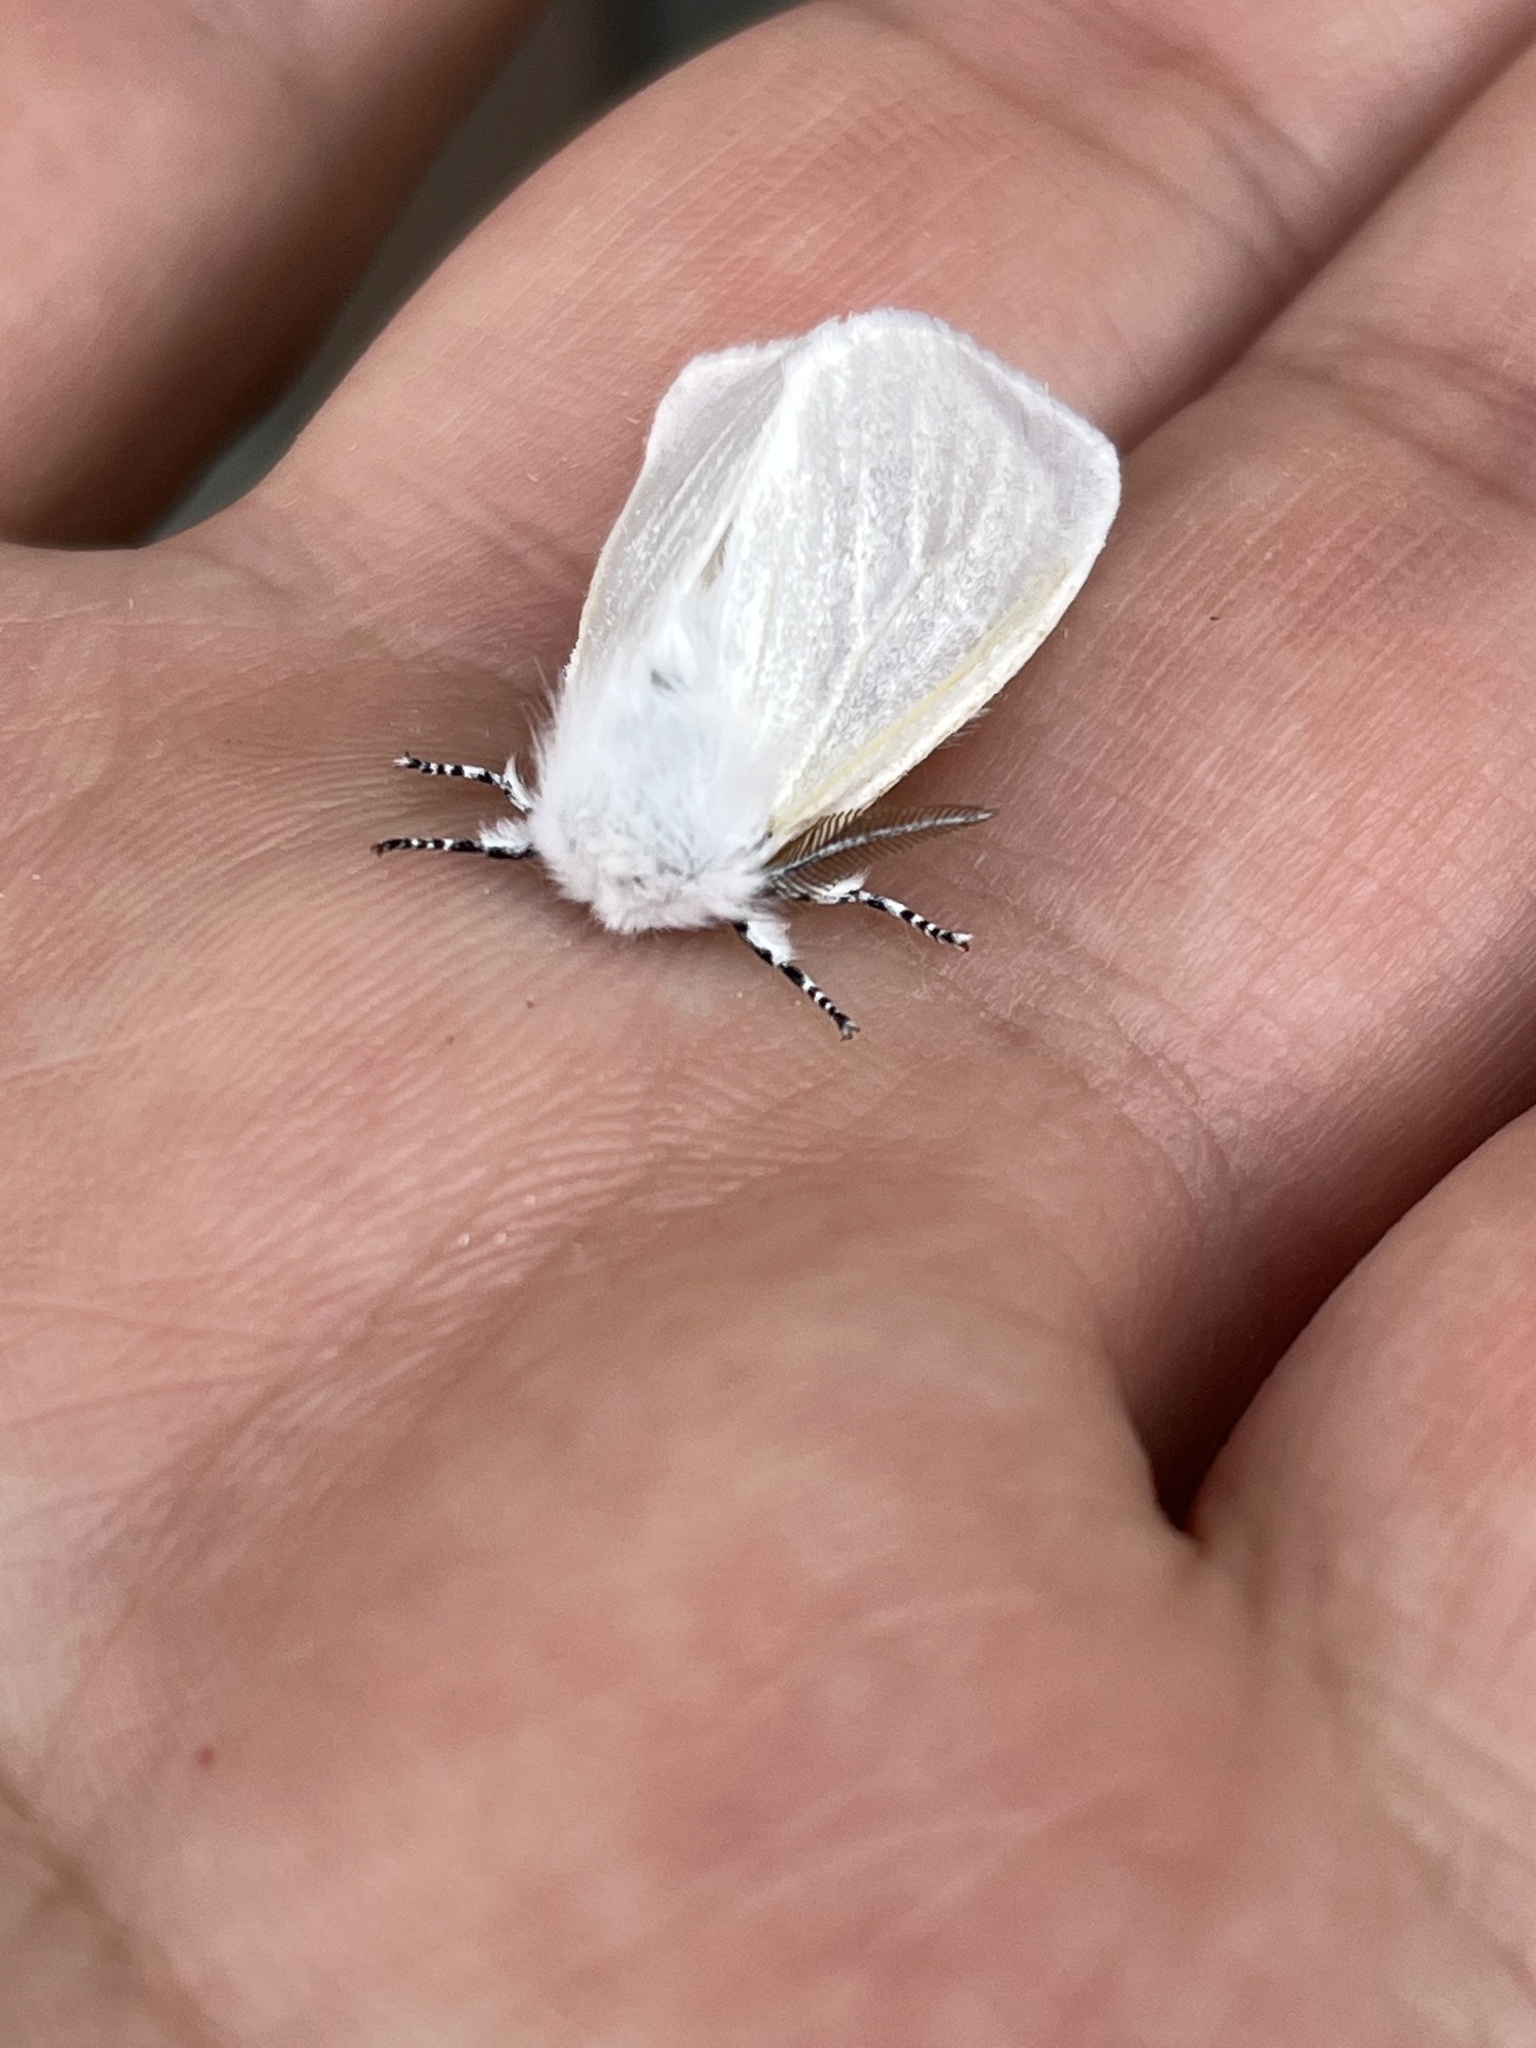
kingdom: Animalia
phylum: Arthropoda
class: Insecta
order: Lepidoptera
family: Erebidae
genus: Leucoma
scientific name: Leucoma salicis
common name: White satin moth
